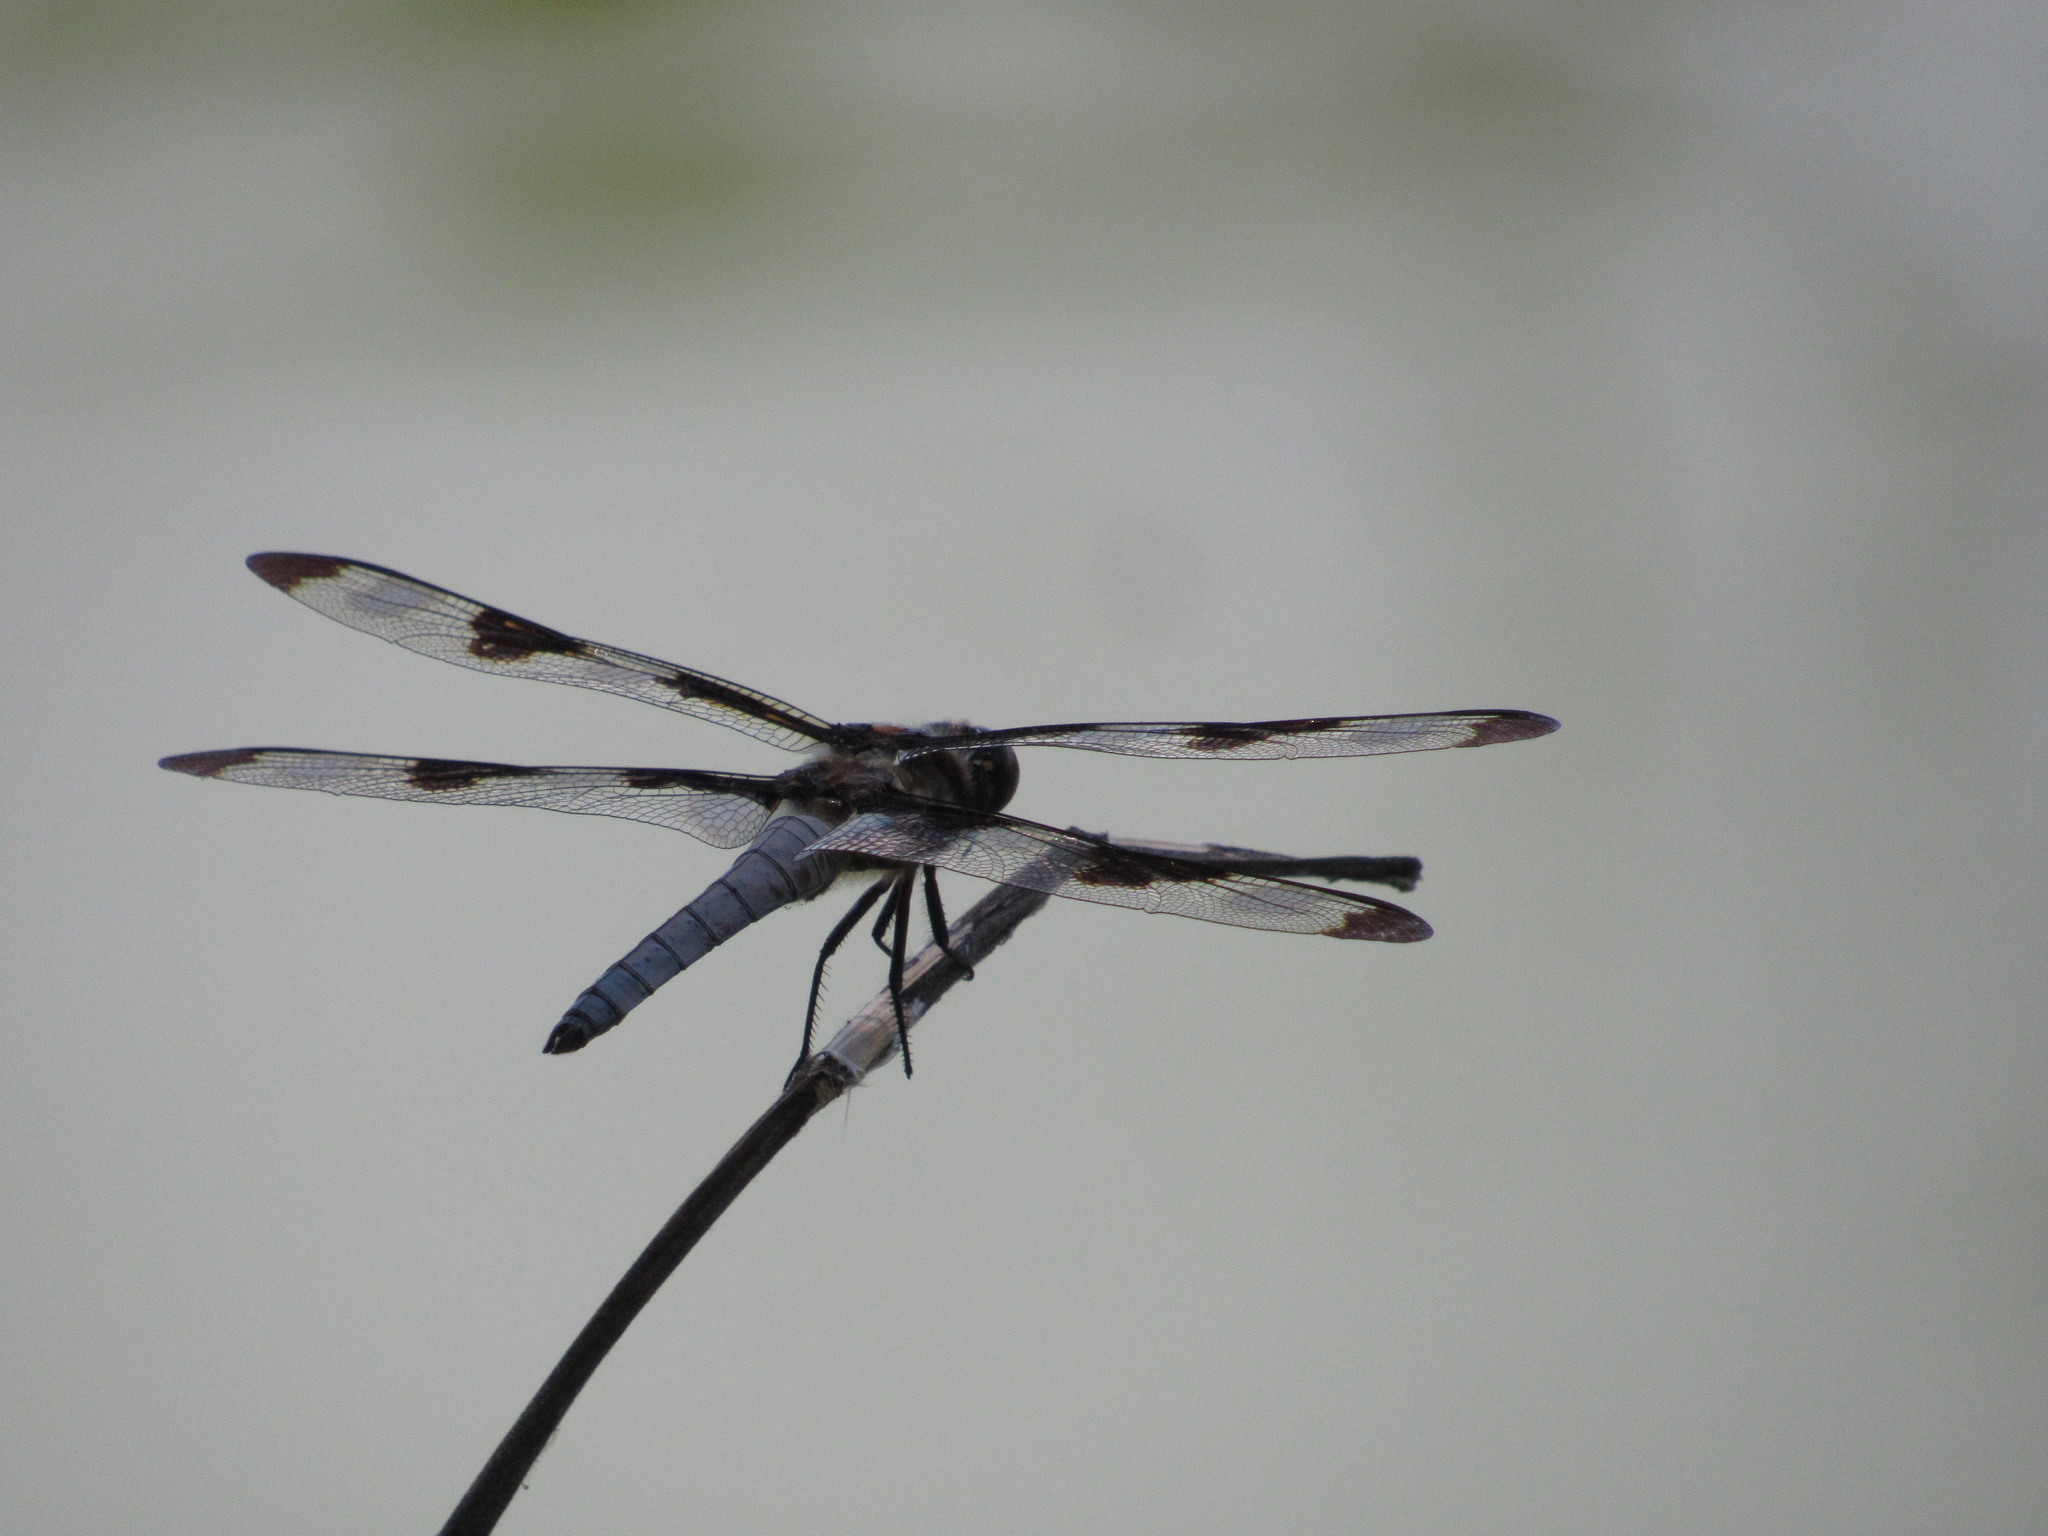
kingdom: Animalia
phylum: Arthropoda
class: Insecta
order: Odonata
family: Libellulidae
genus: Libellula
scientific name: Libellula pulchella
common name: Twelve-spotted skimmer
